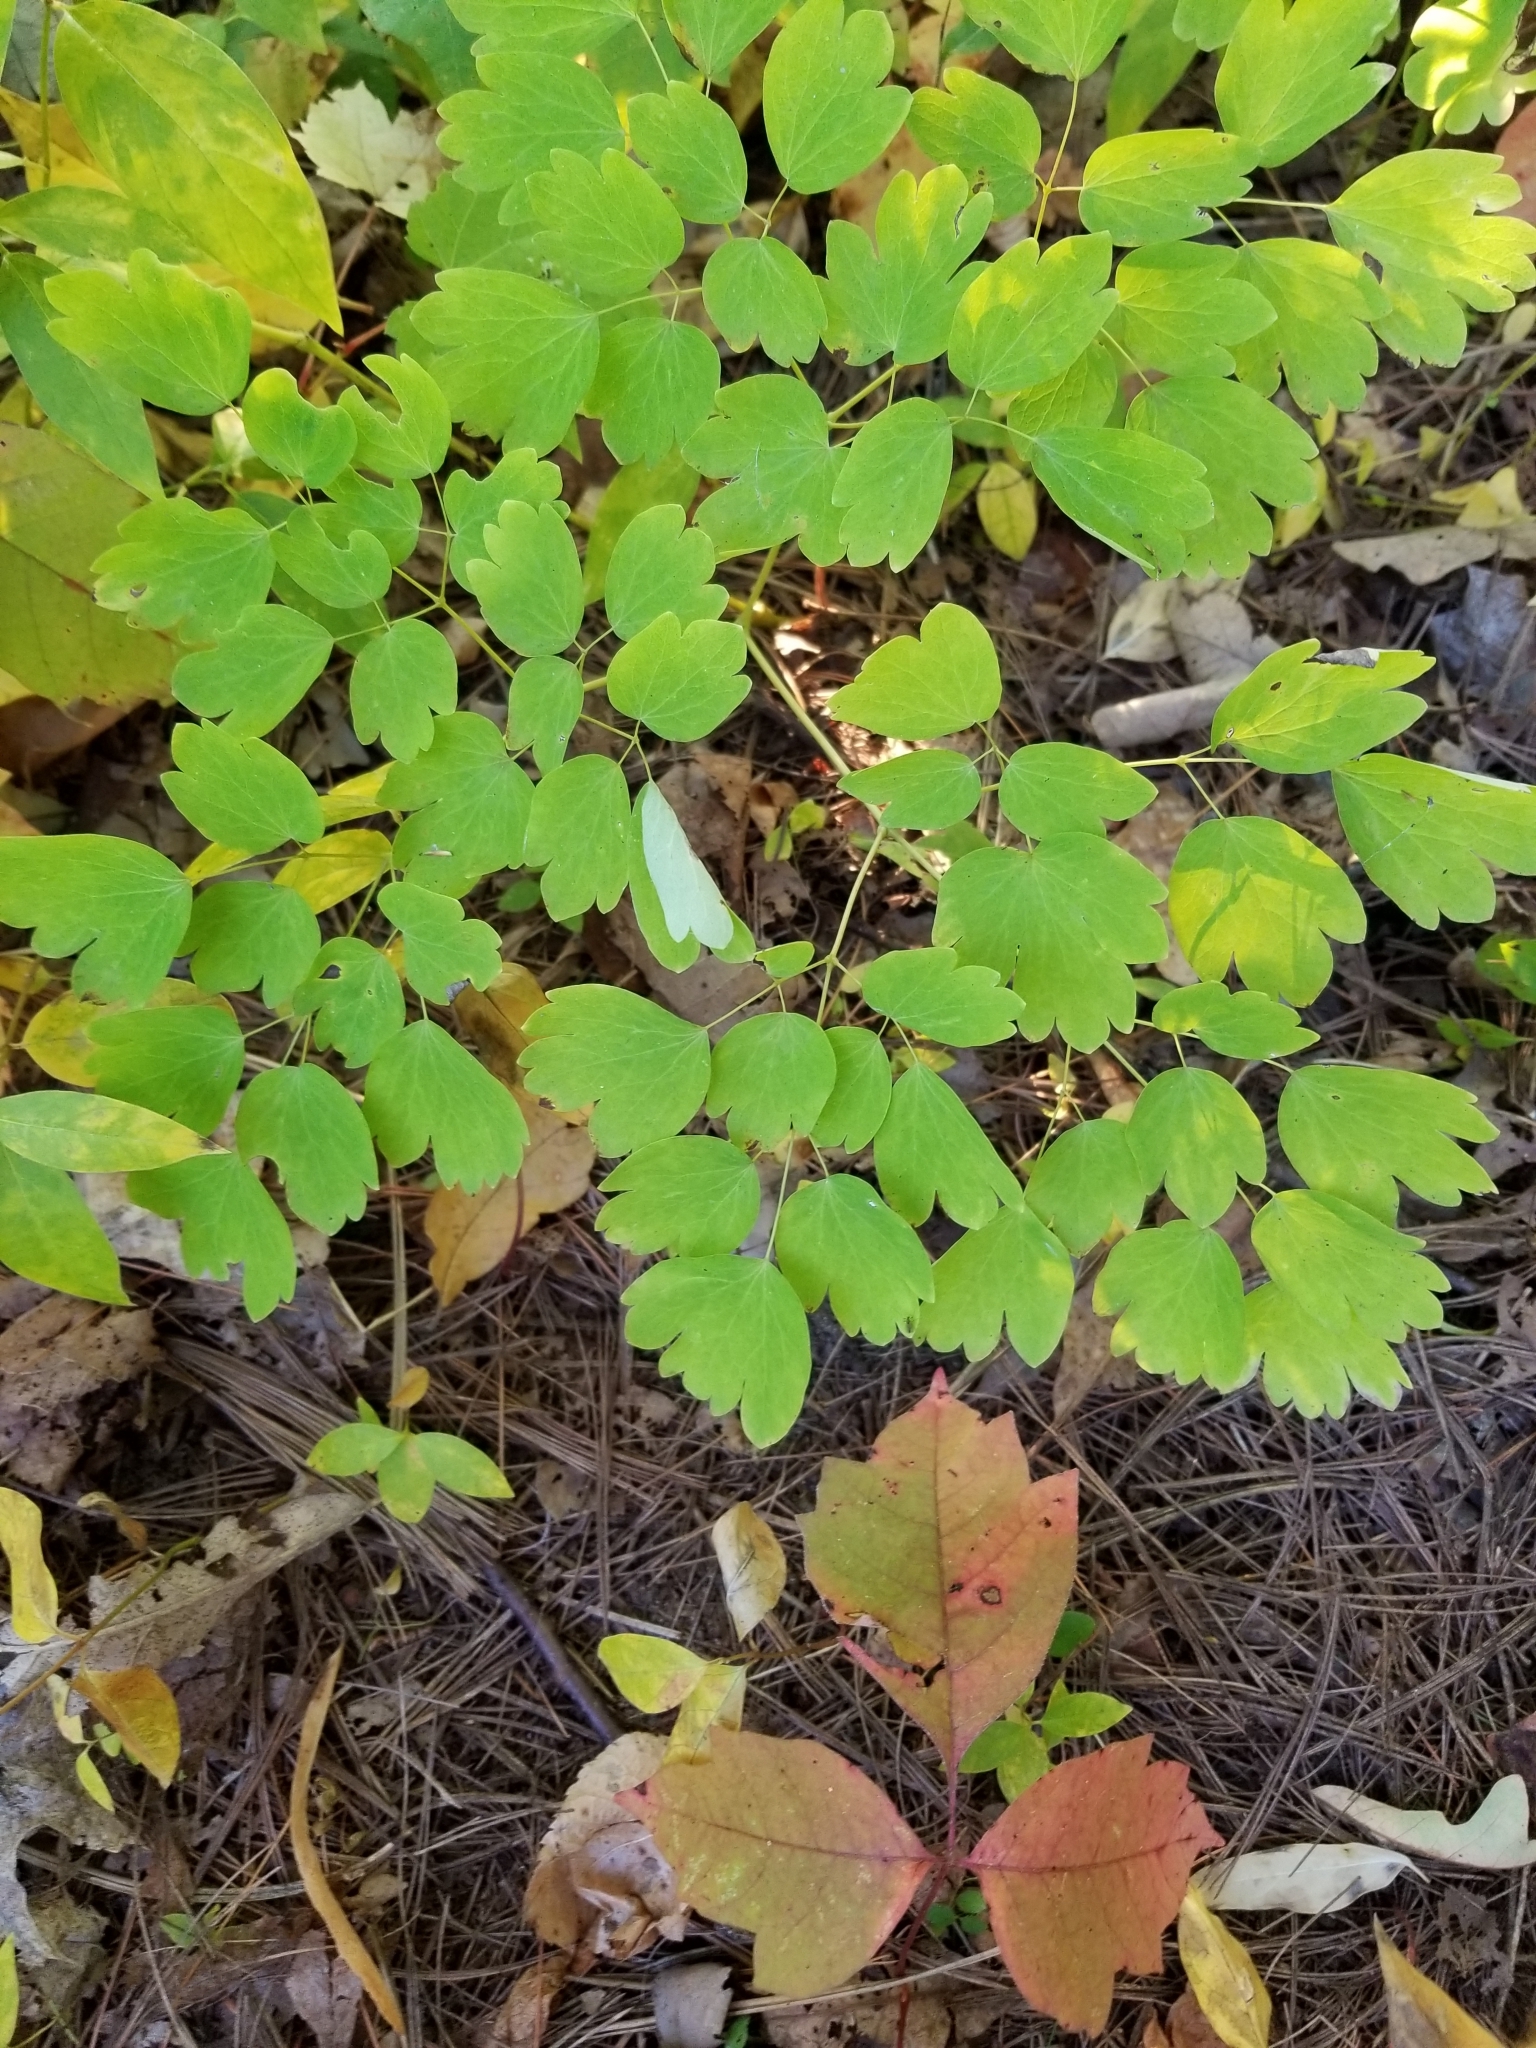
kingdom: Plantae
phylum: Tracheophyta
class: Magnoliopsida
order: Ranunculales
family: Ranunculaceae
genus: Thalictrum
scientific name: Thalictrum dioicum
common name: Early meadow-rue
